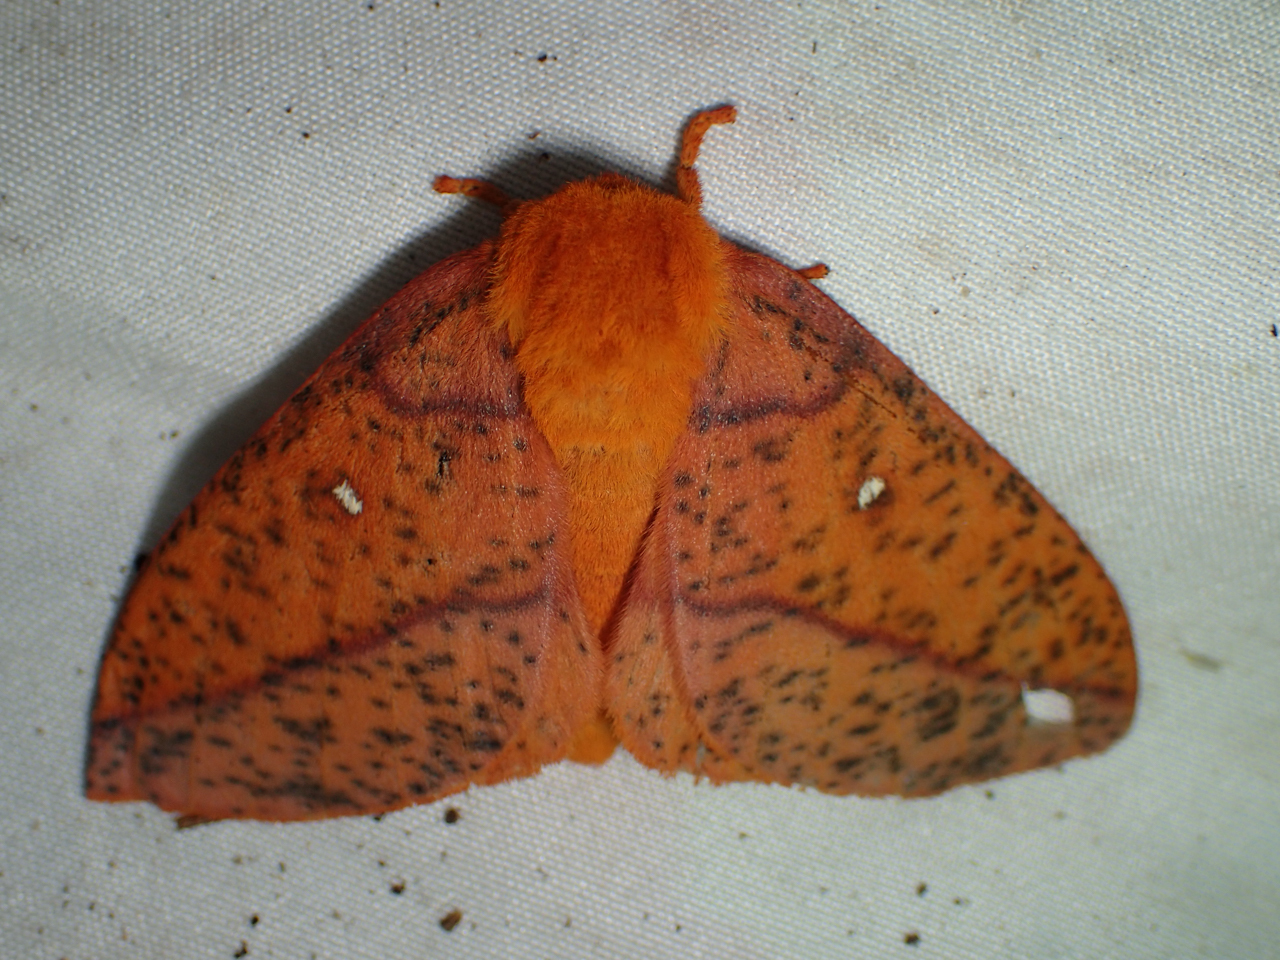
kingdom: Animalia
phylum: Arthropoda
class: Insecta
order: Lepidoptera
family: Saturniidae
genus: Anisota
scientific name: Anisota stigma
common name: Spiny oakworm moth
